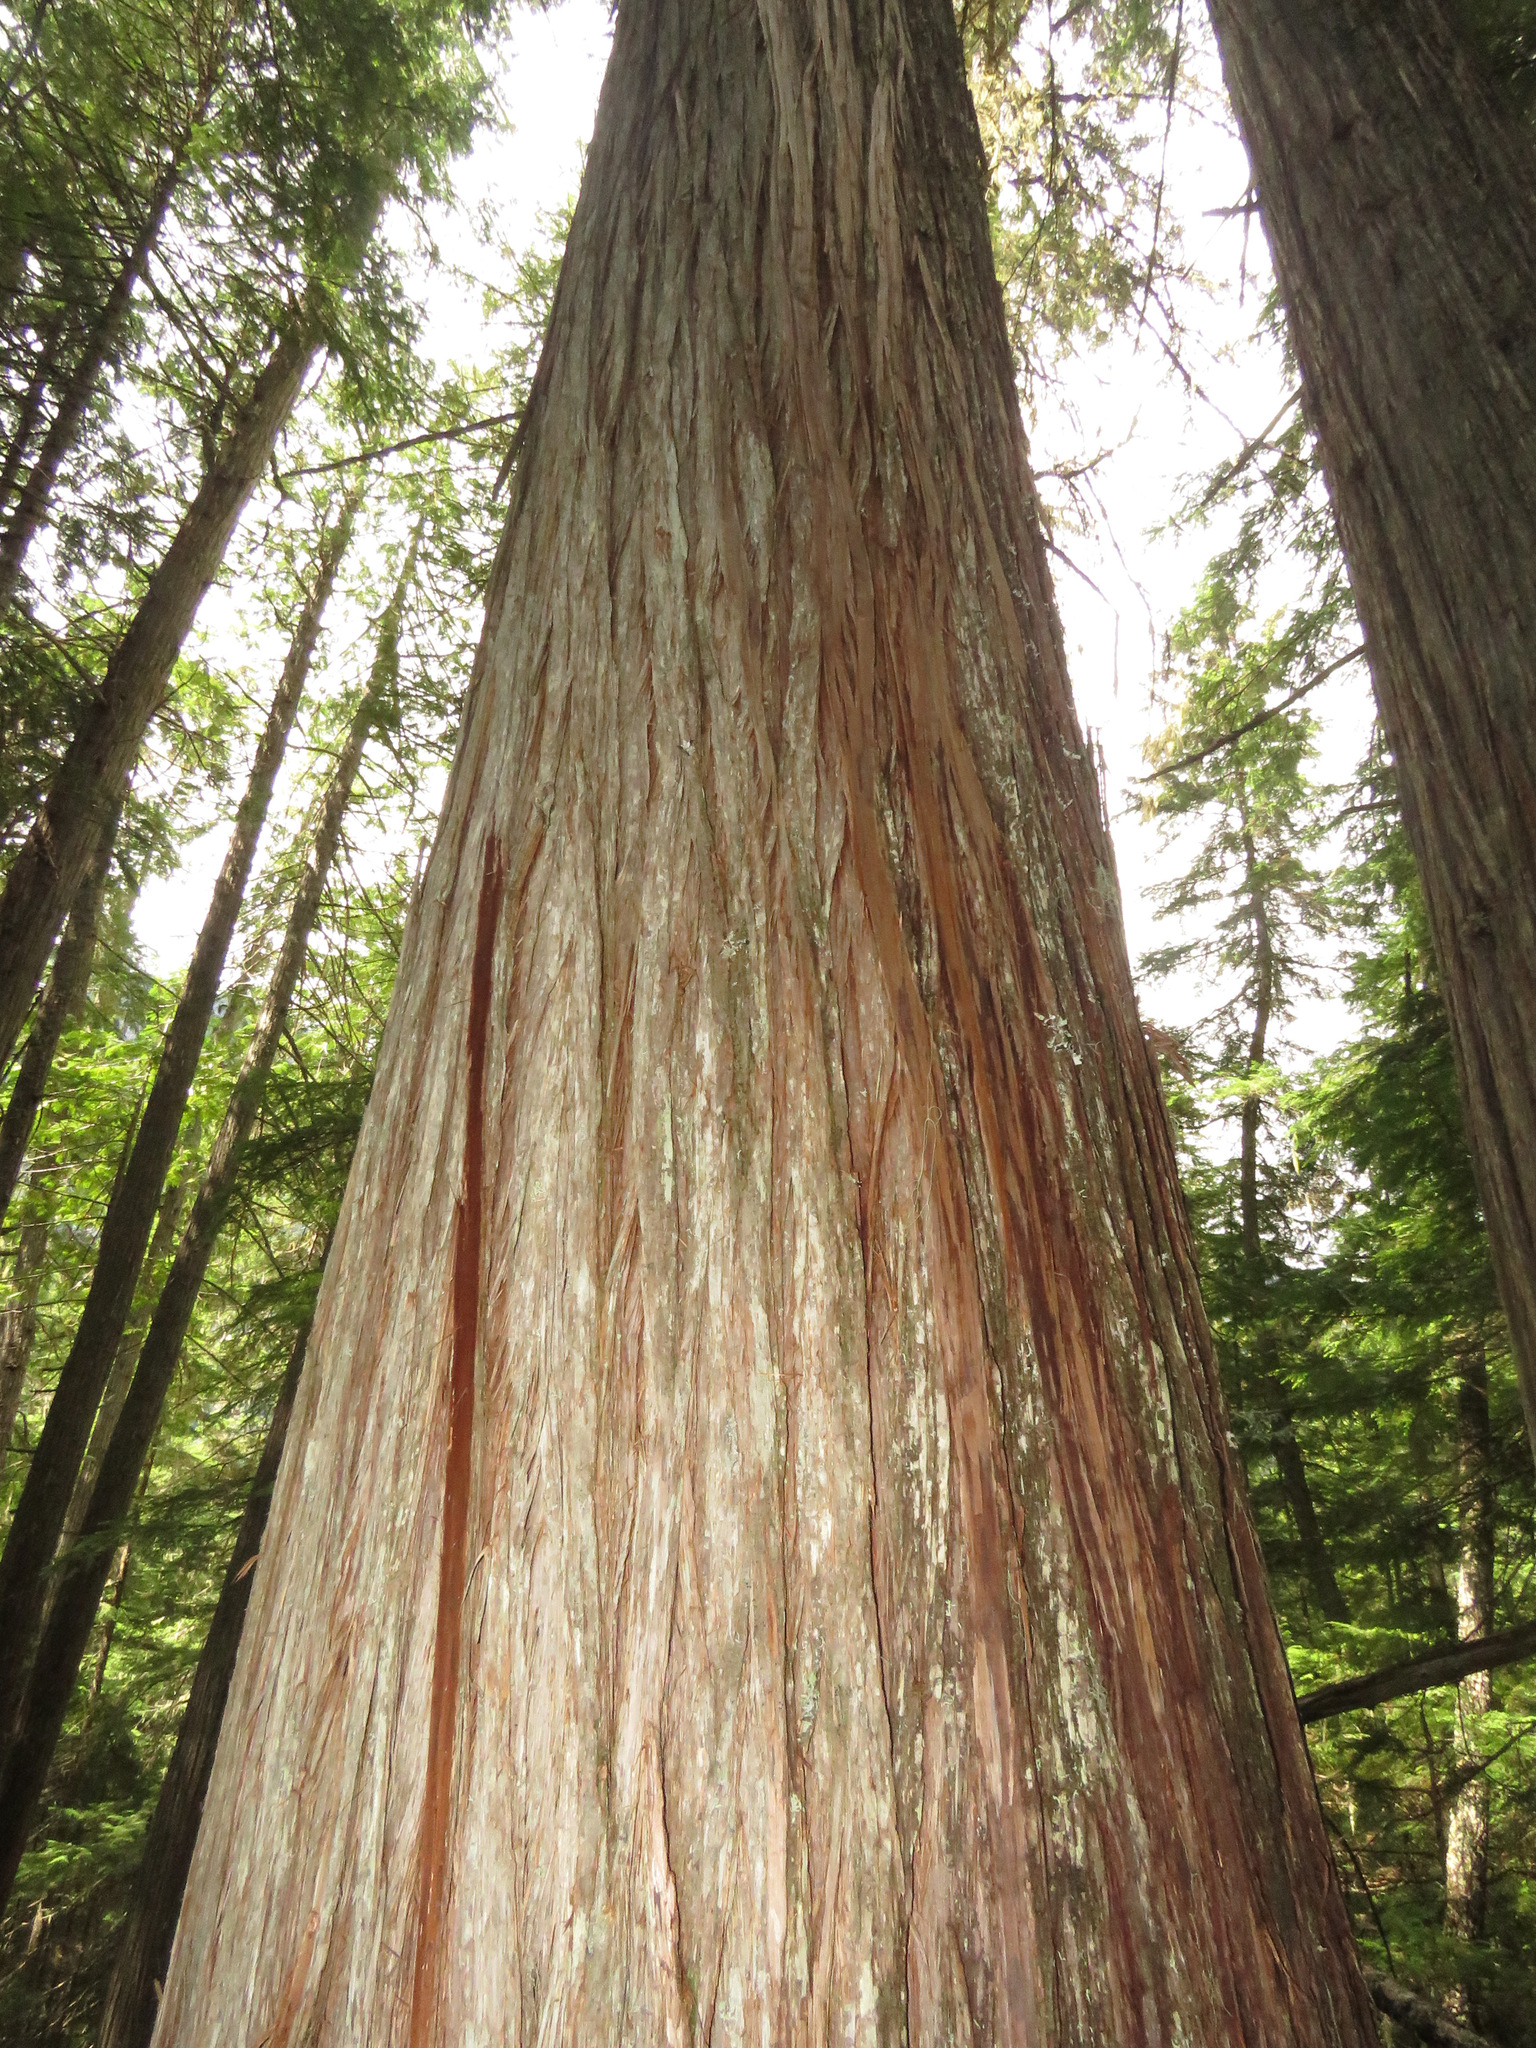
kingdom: Plantae
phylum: Tracheophyta
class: Pinopsida
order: Pinales
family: Cupressaceae
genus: Thuja
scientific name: Thuja plicata
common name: Western red-cedar
